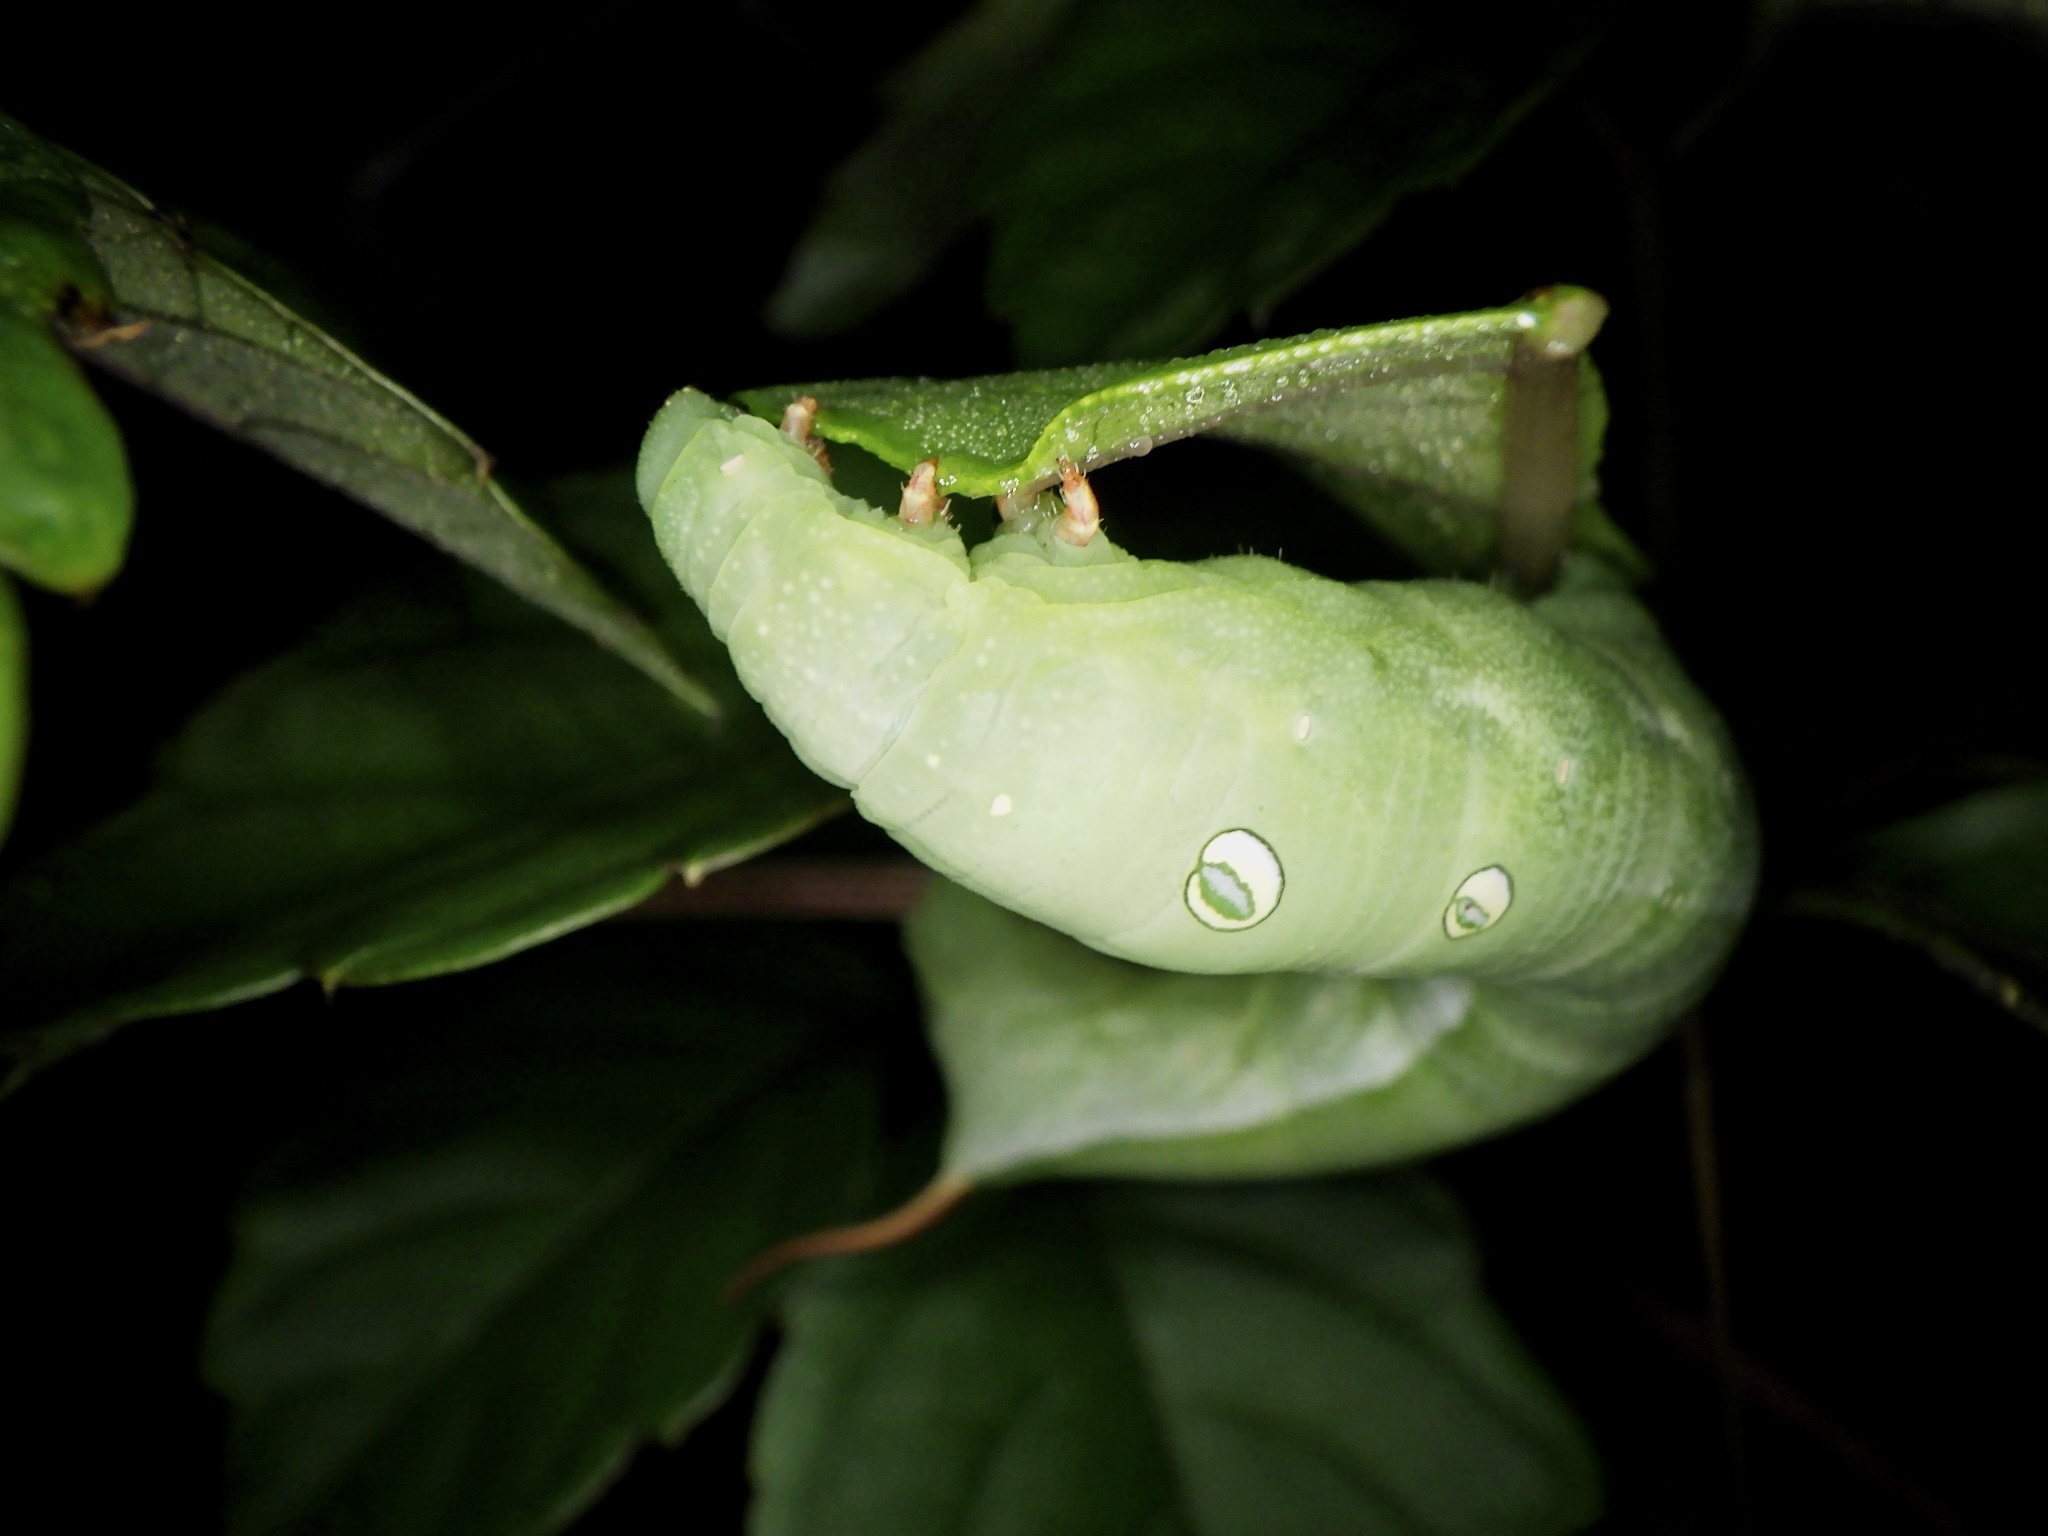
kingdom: Animalia
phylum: Arthropoda
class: Insecta
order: Lepidoptera
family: Sphingidae
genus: Theretra
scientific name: Theretra nessus
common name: Yam hawk moth
